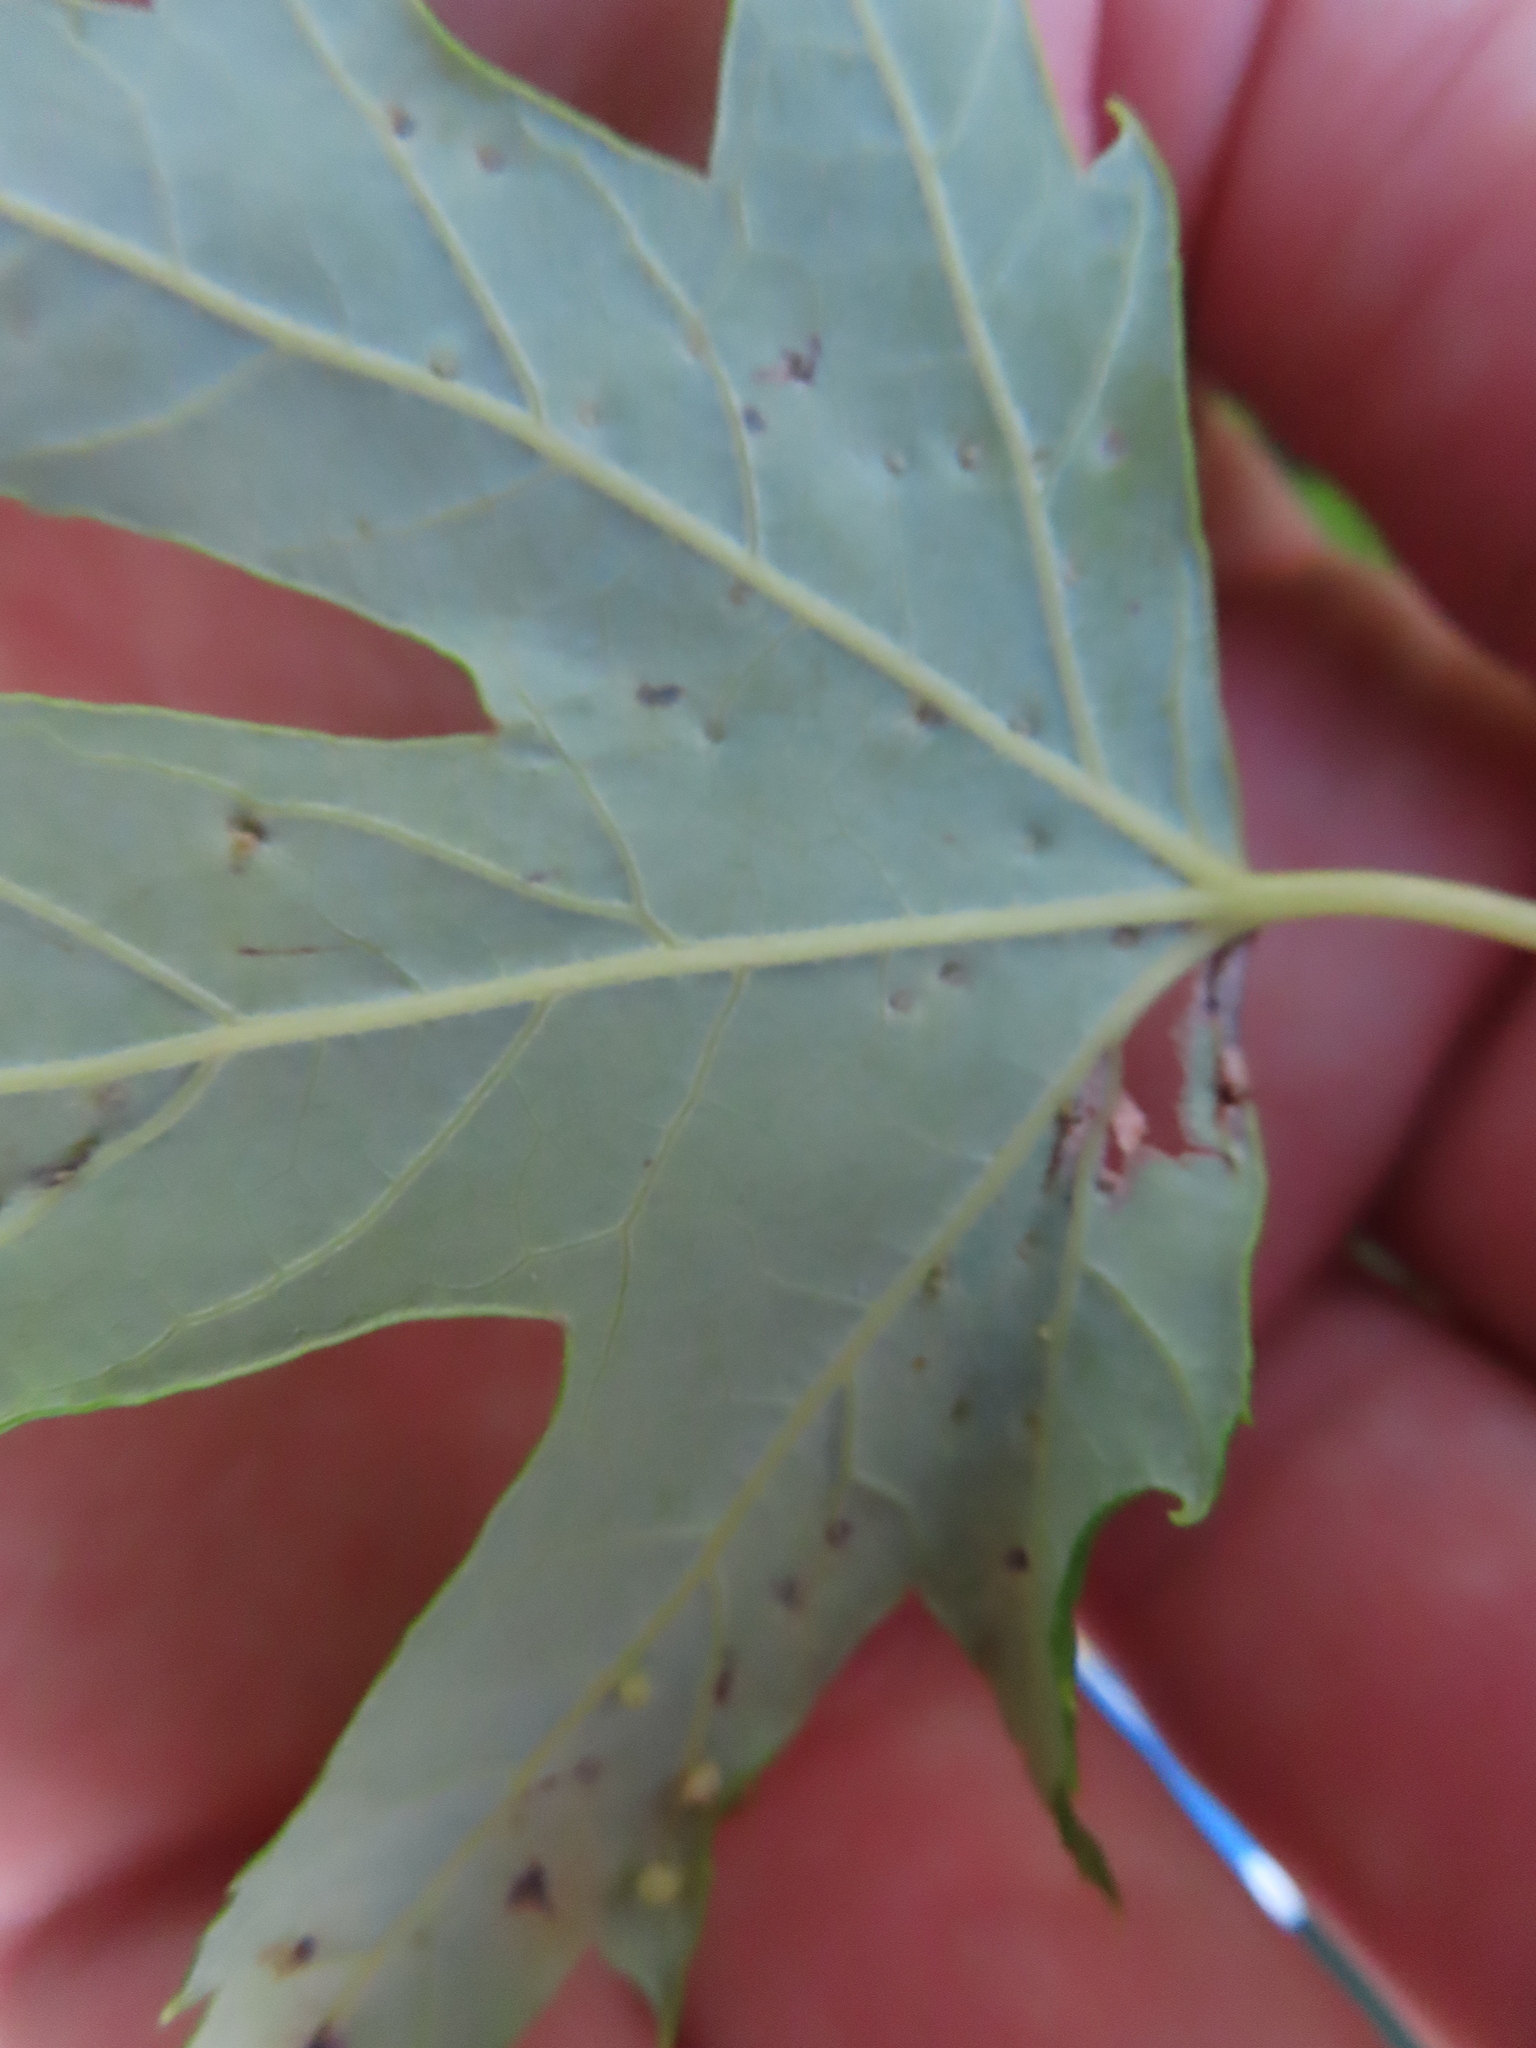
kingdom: Animalia
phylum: Arthropoda
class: Arachnida
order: Trombidiformes
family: Eriophyidae
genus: Vasates
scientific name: Vasates quadripedes
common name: Maple bladder gall mite
